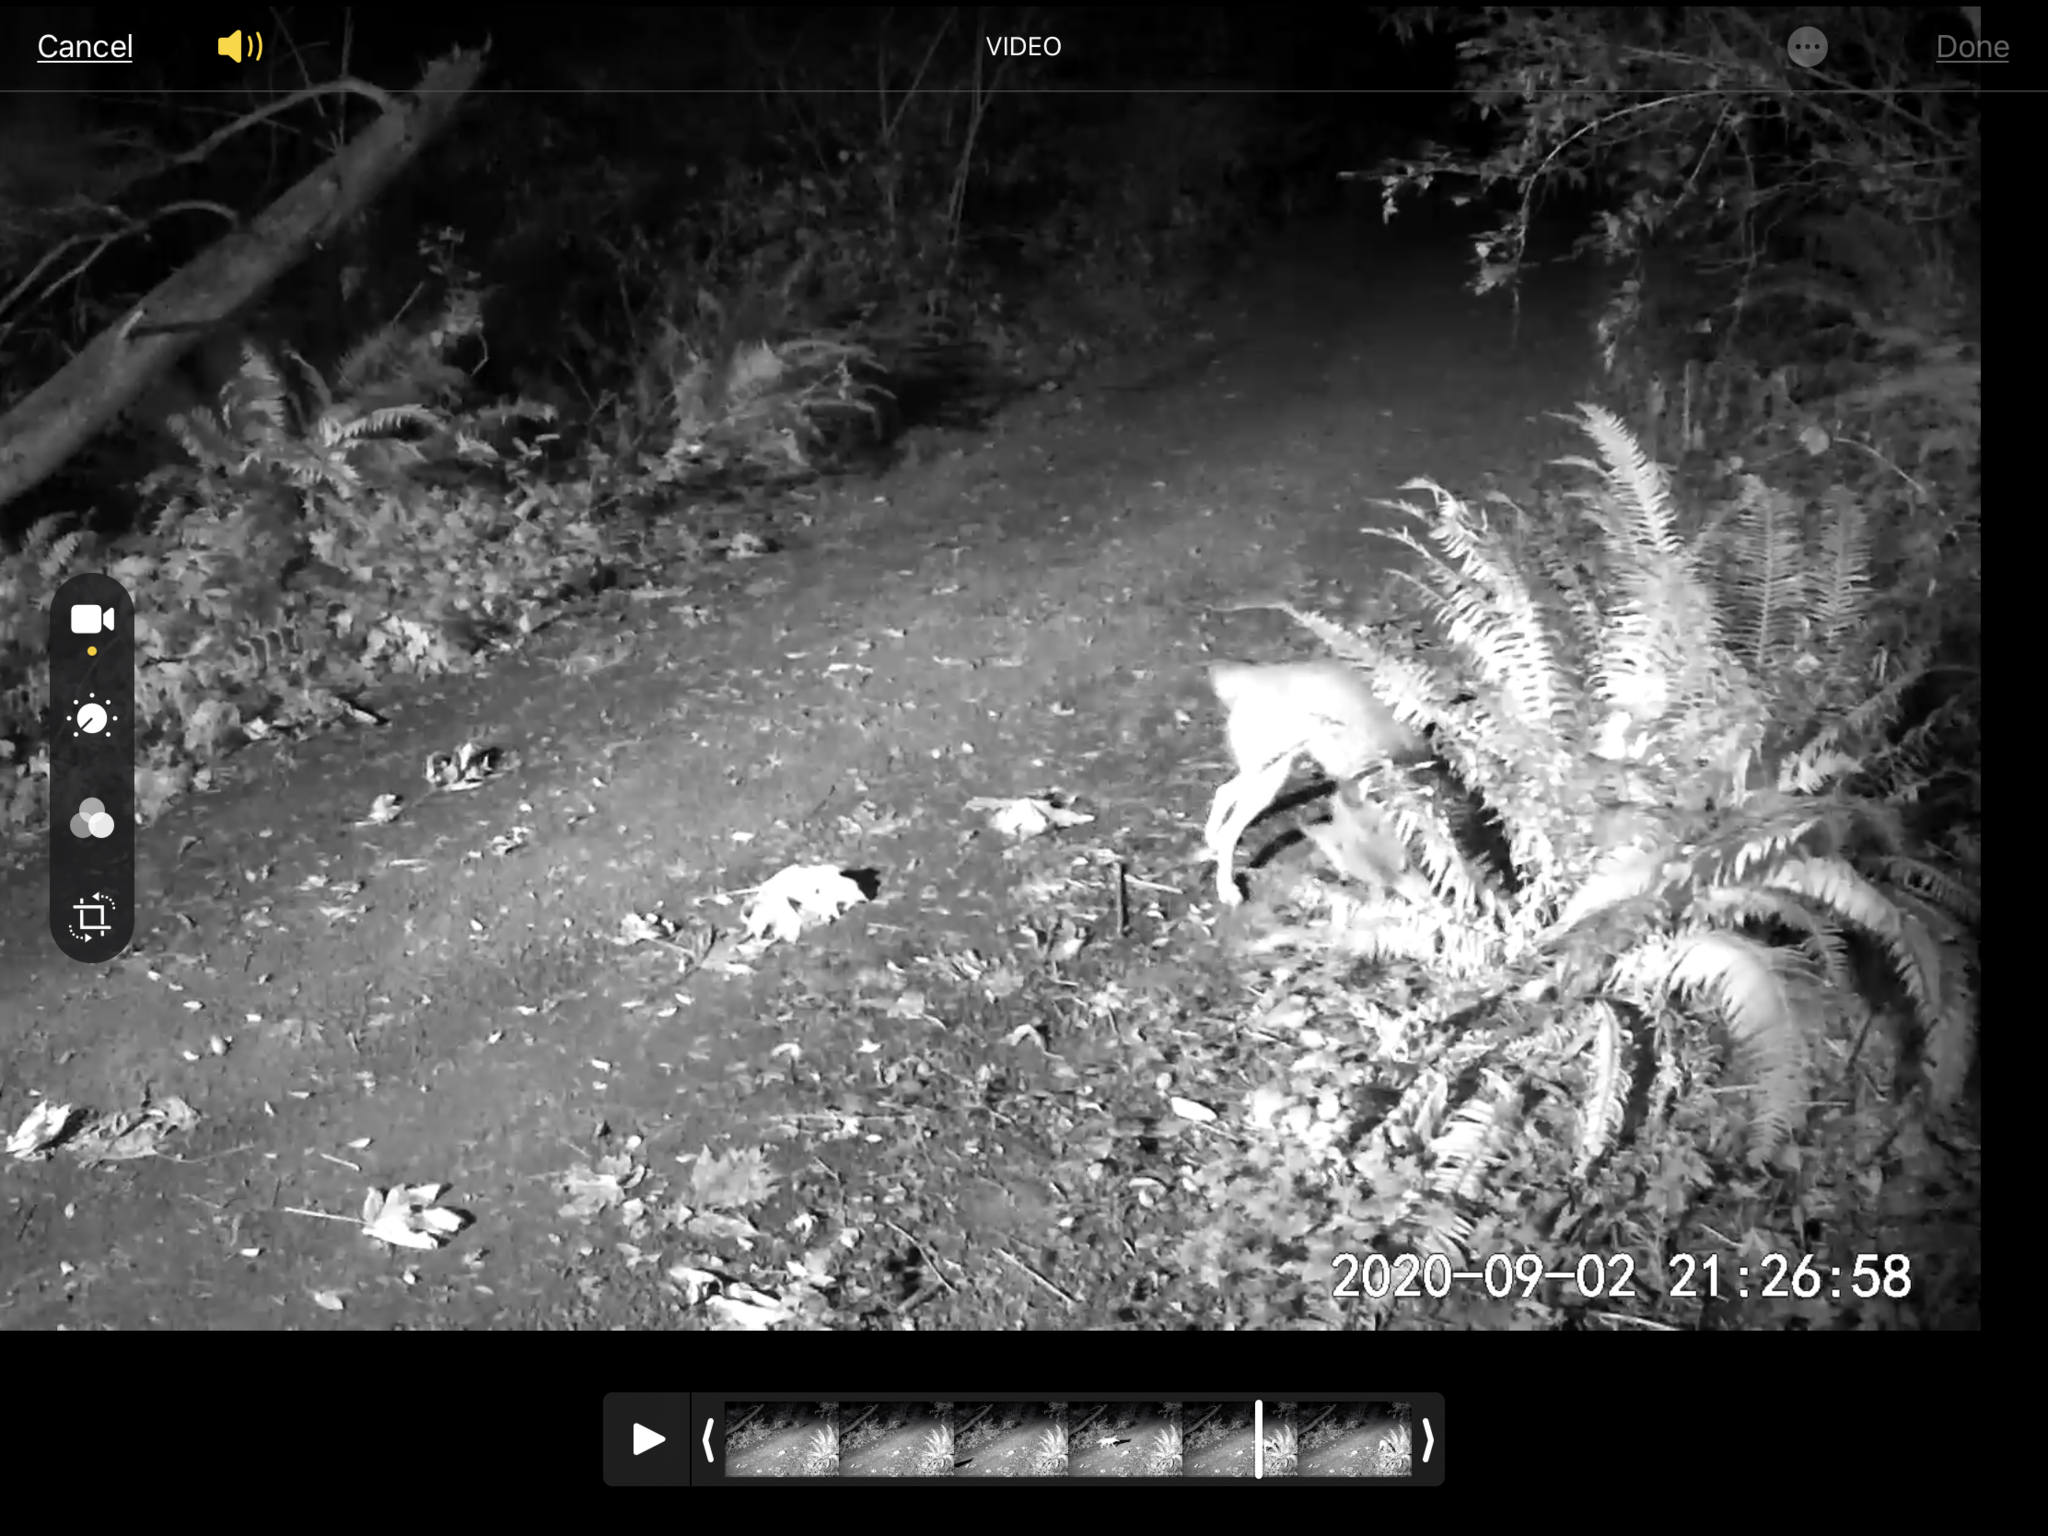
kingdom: Animalia
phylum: Chordata
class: Mammalia
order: Carnivora
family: Canidae
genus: Canis
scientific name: Canis latrans
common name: Coyote
